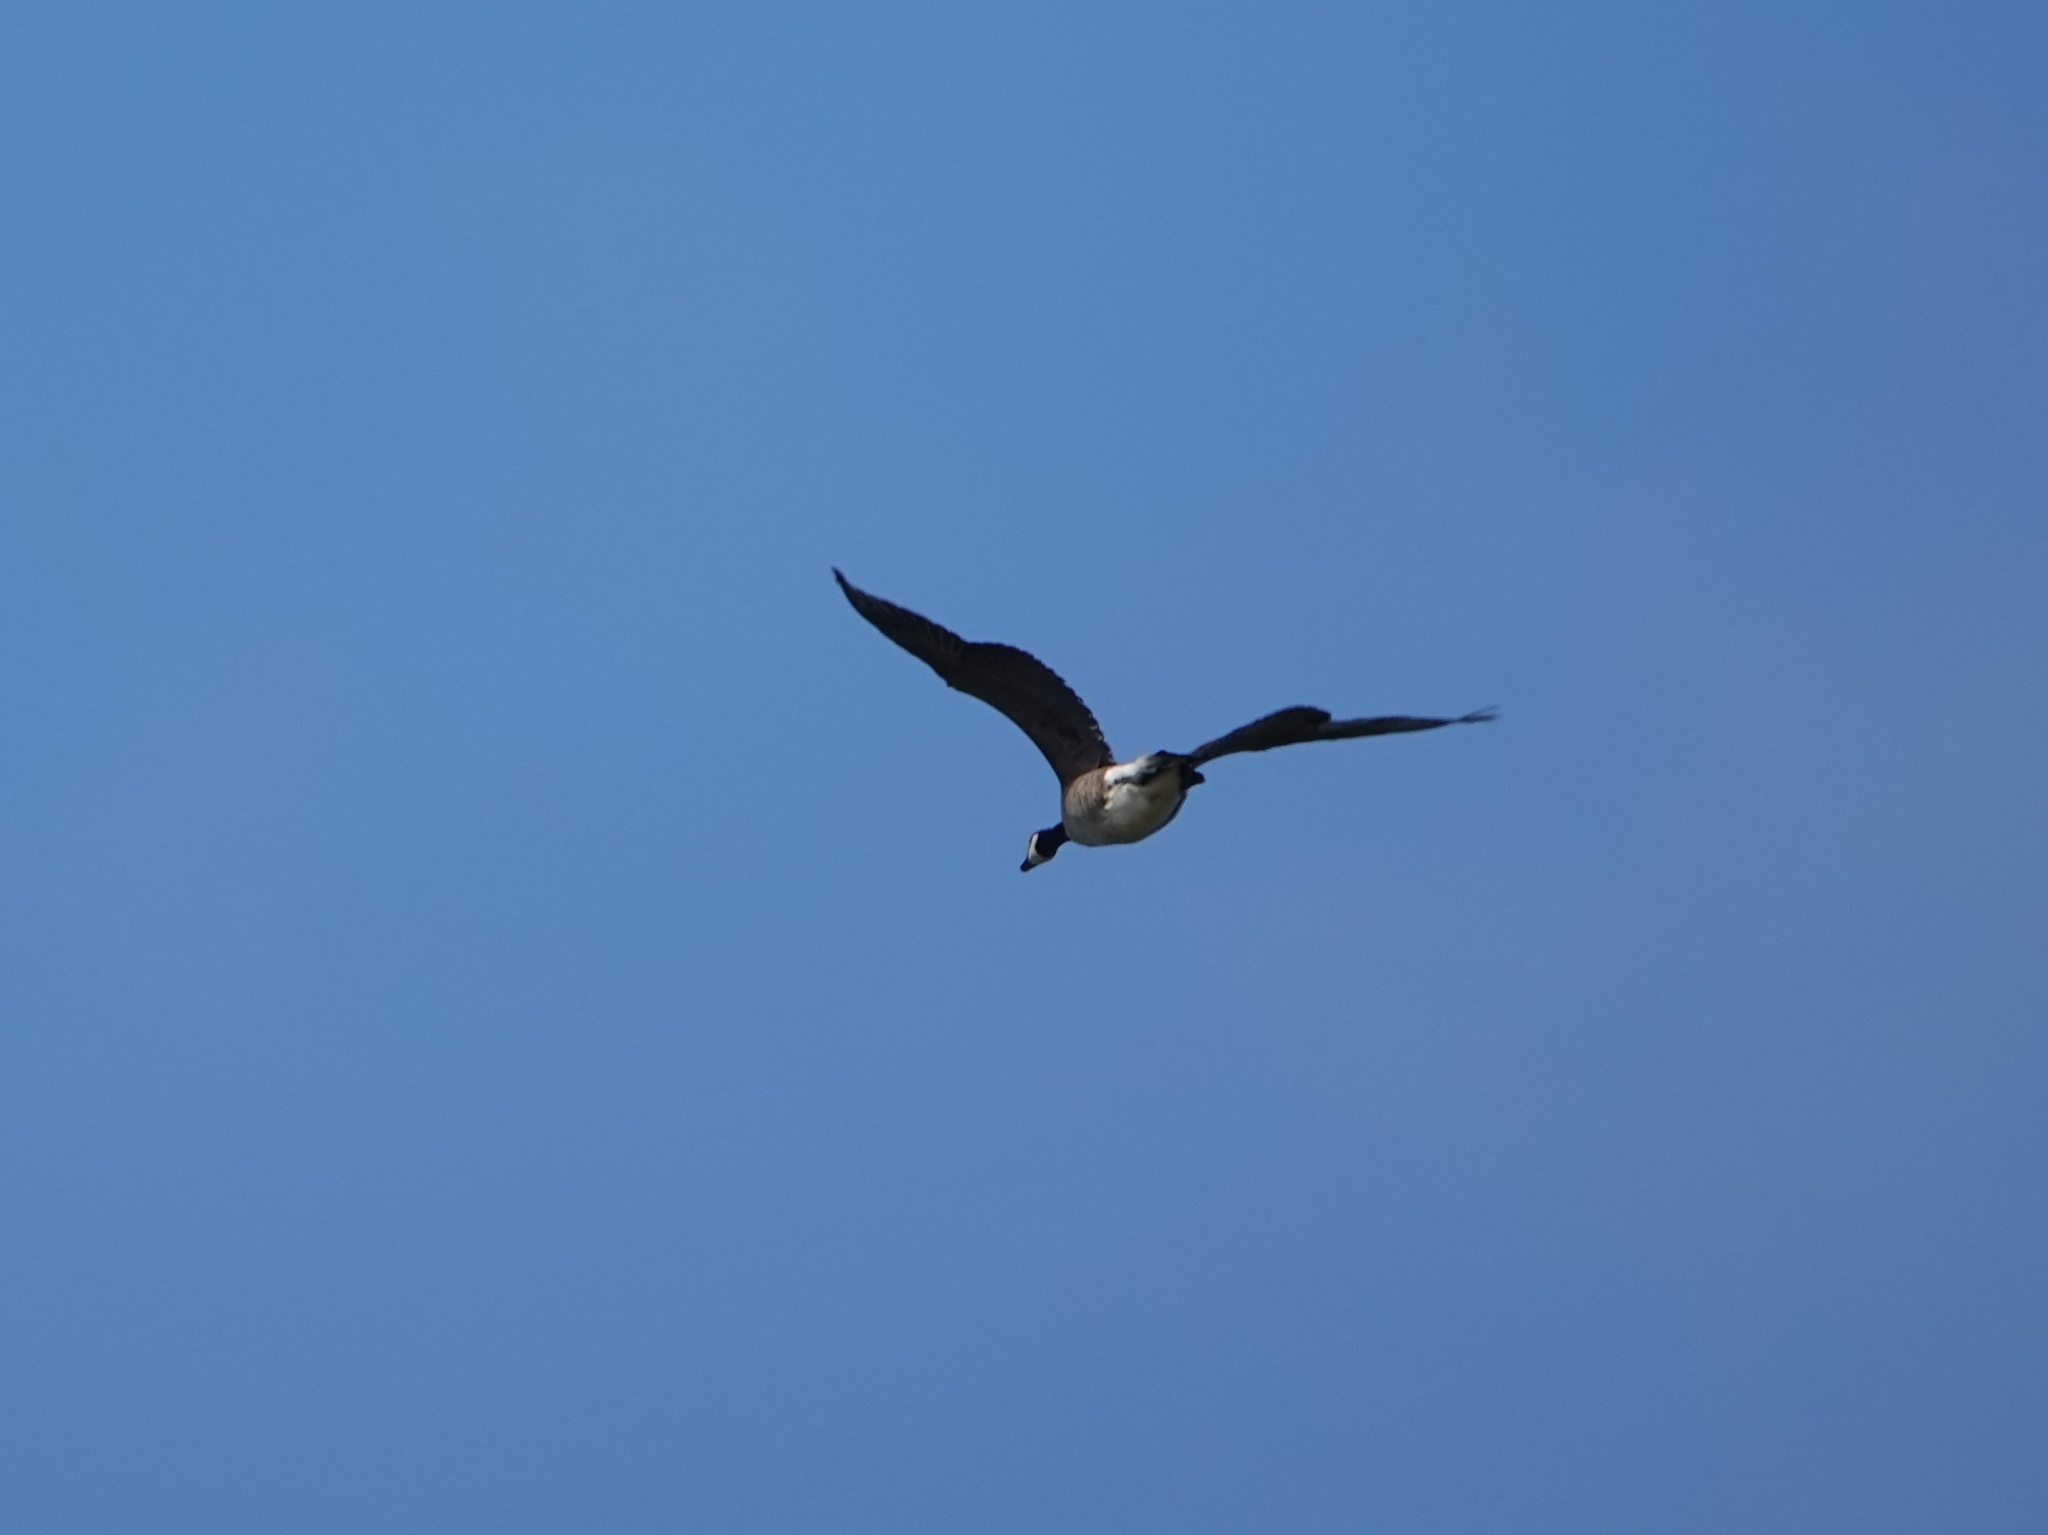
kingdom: Animalia
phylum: Chordata
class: Aves
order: Anseriformes
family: Anatidae
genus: Branta
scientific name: Branta canadensis
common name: Canada goose
